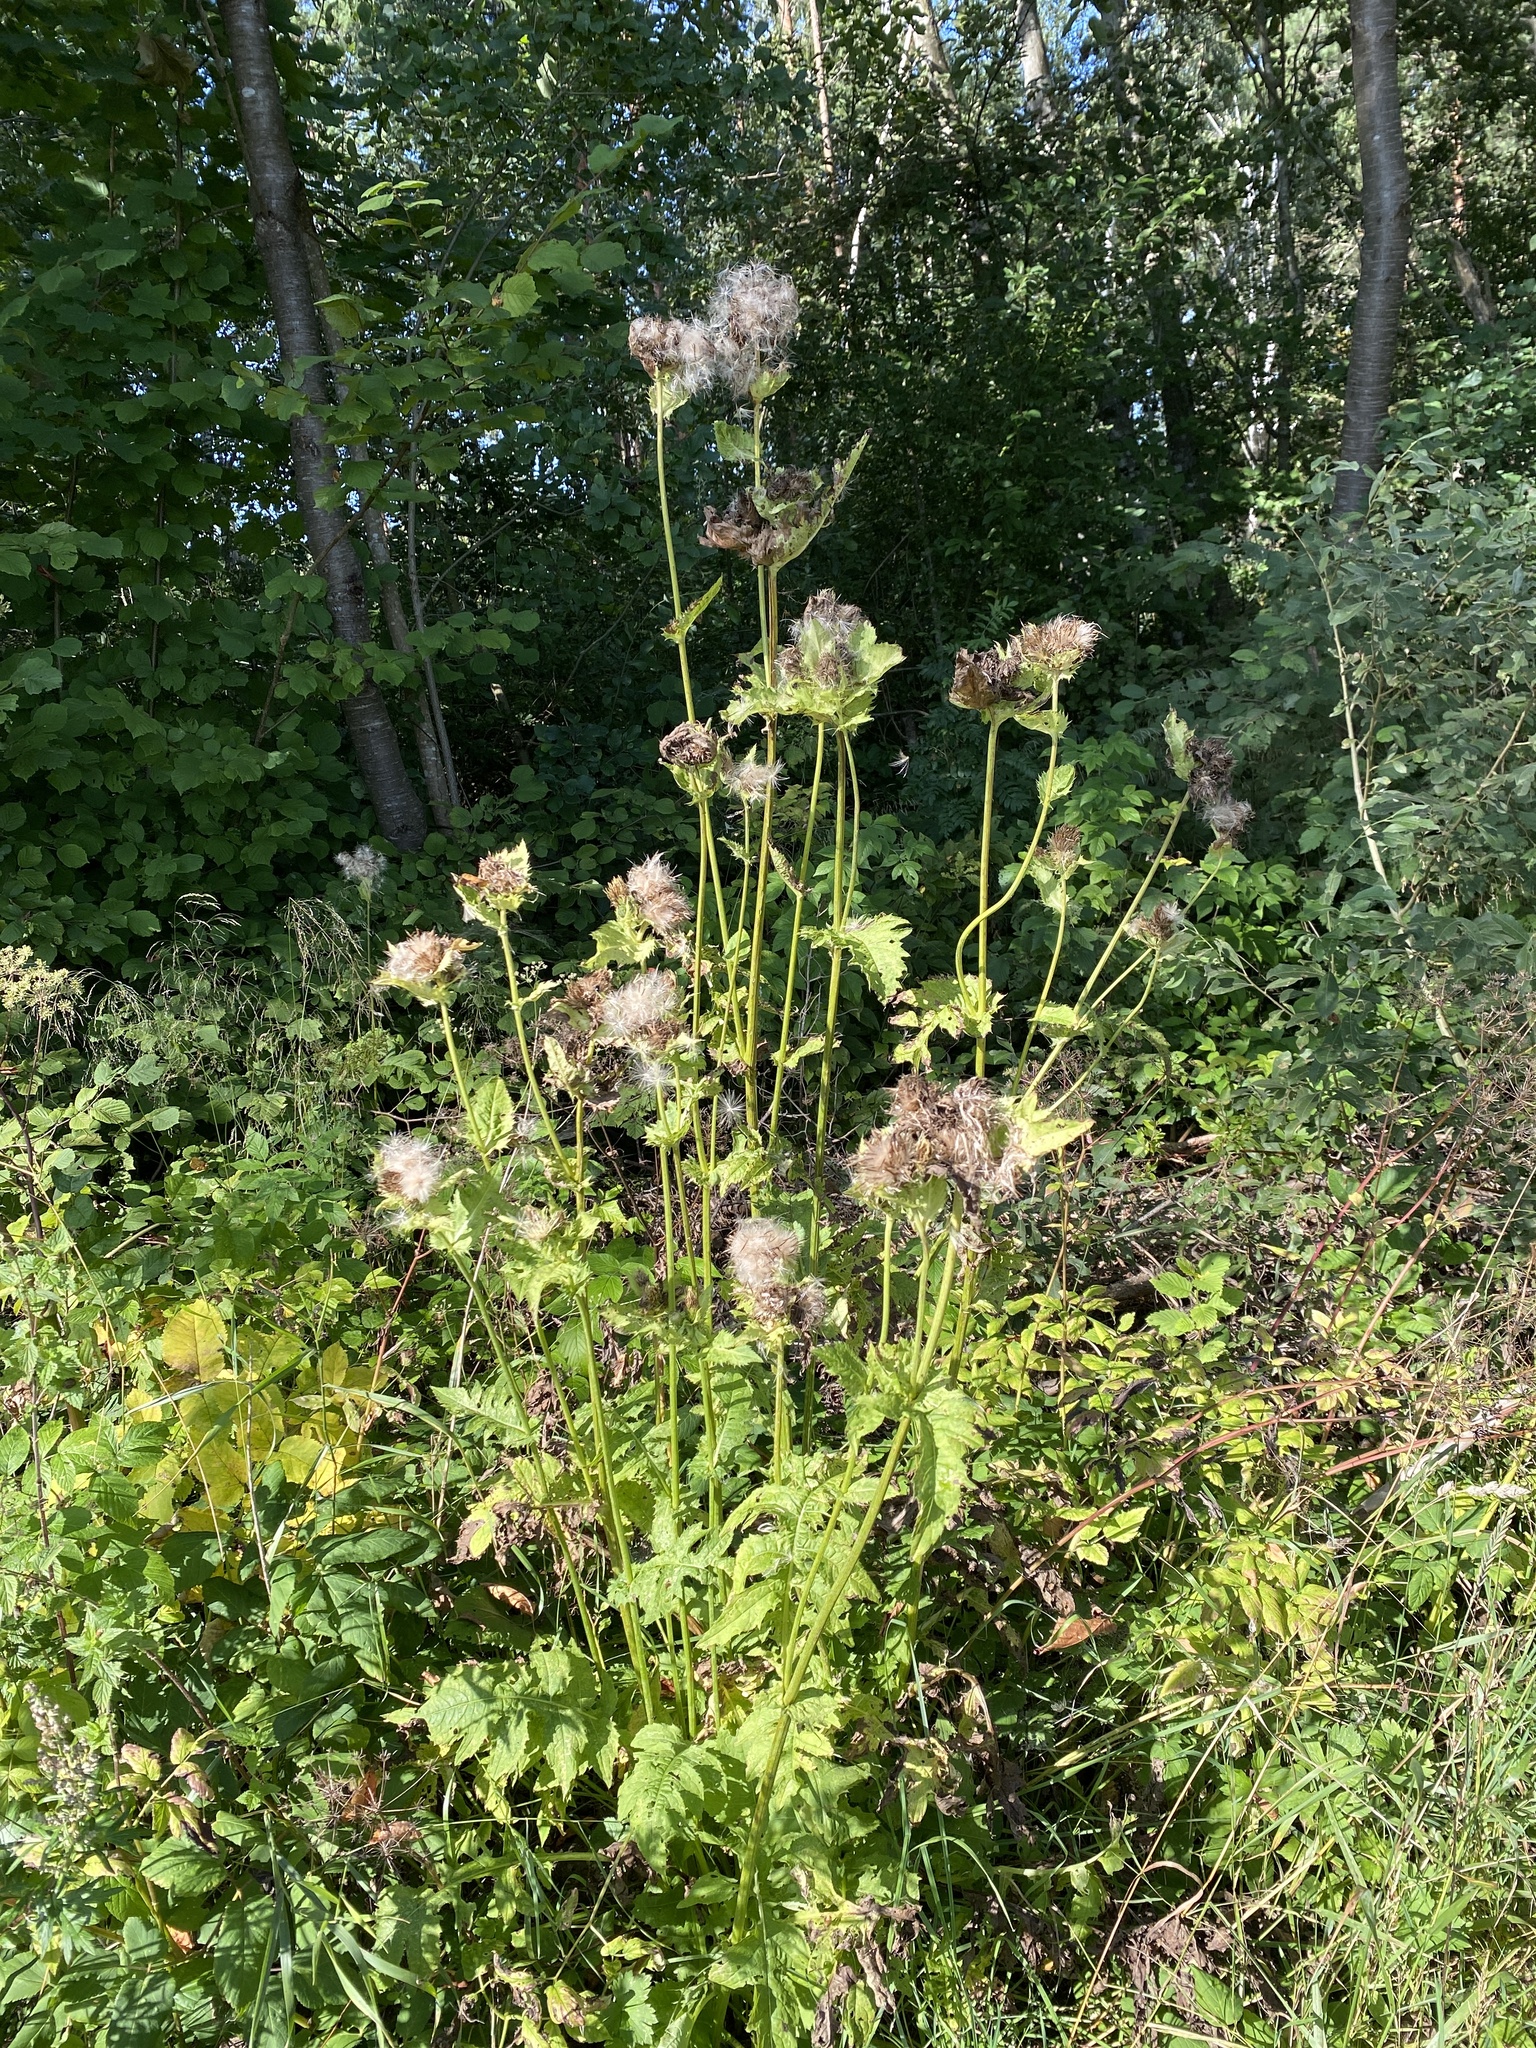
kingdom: Plantae
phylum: Tracheophyta
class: Magnoliopsida
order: Asterales
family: Asteraceae
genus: Cirsium
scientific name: Cirsium oleraceum
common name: Cabbage thistle
